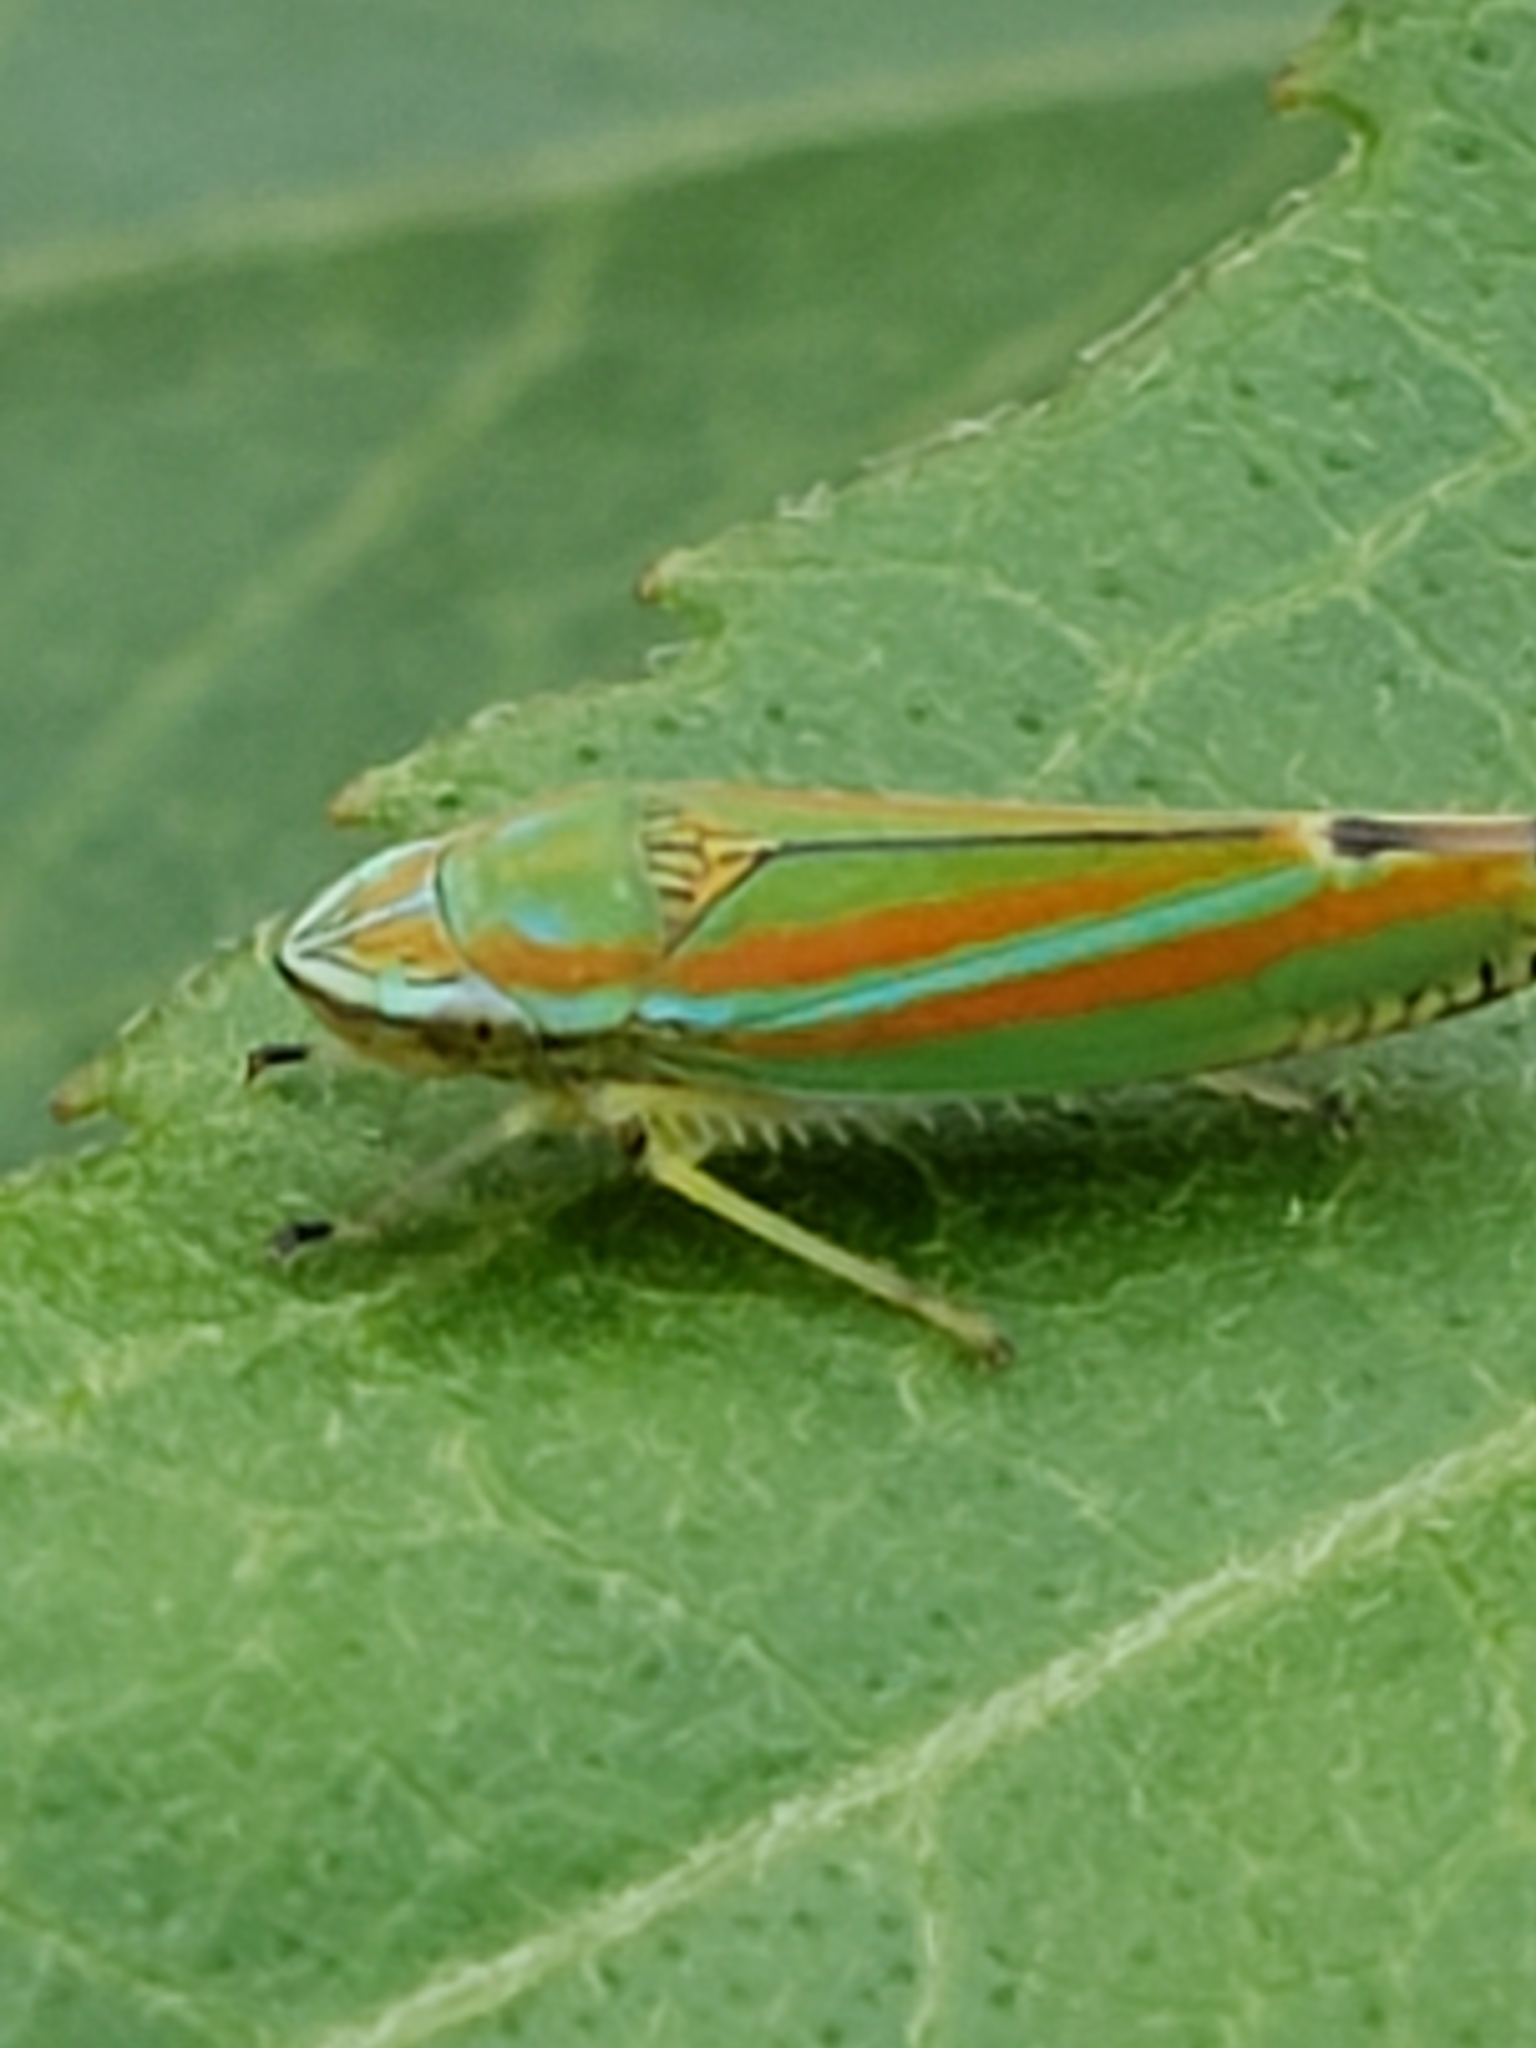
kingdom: Animalia
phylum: Arthropoda
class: Insecta
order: Hemiptera
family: Cicadellidae
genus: Graphocephala
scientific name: Graphocephala versuta
